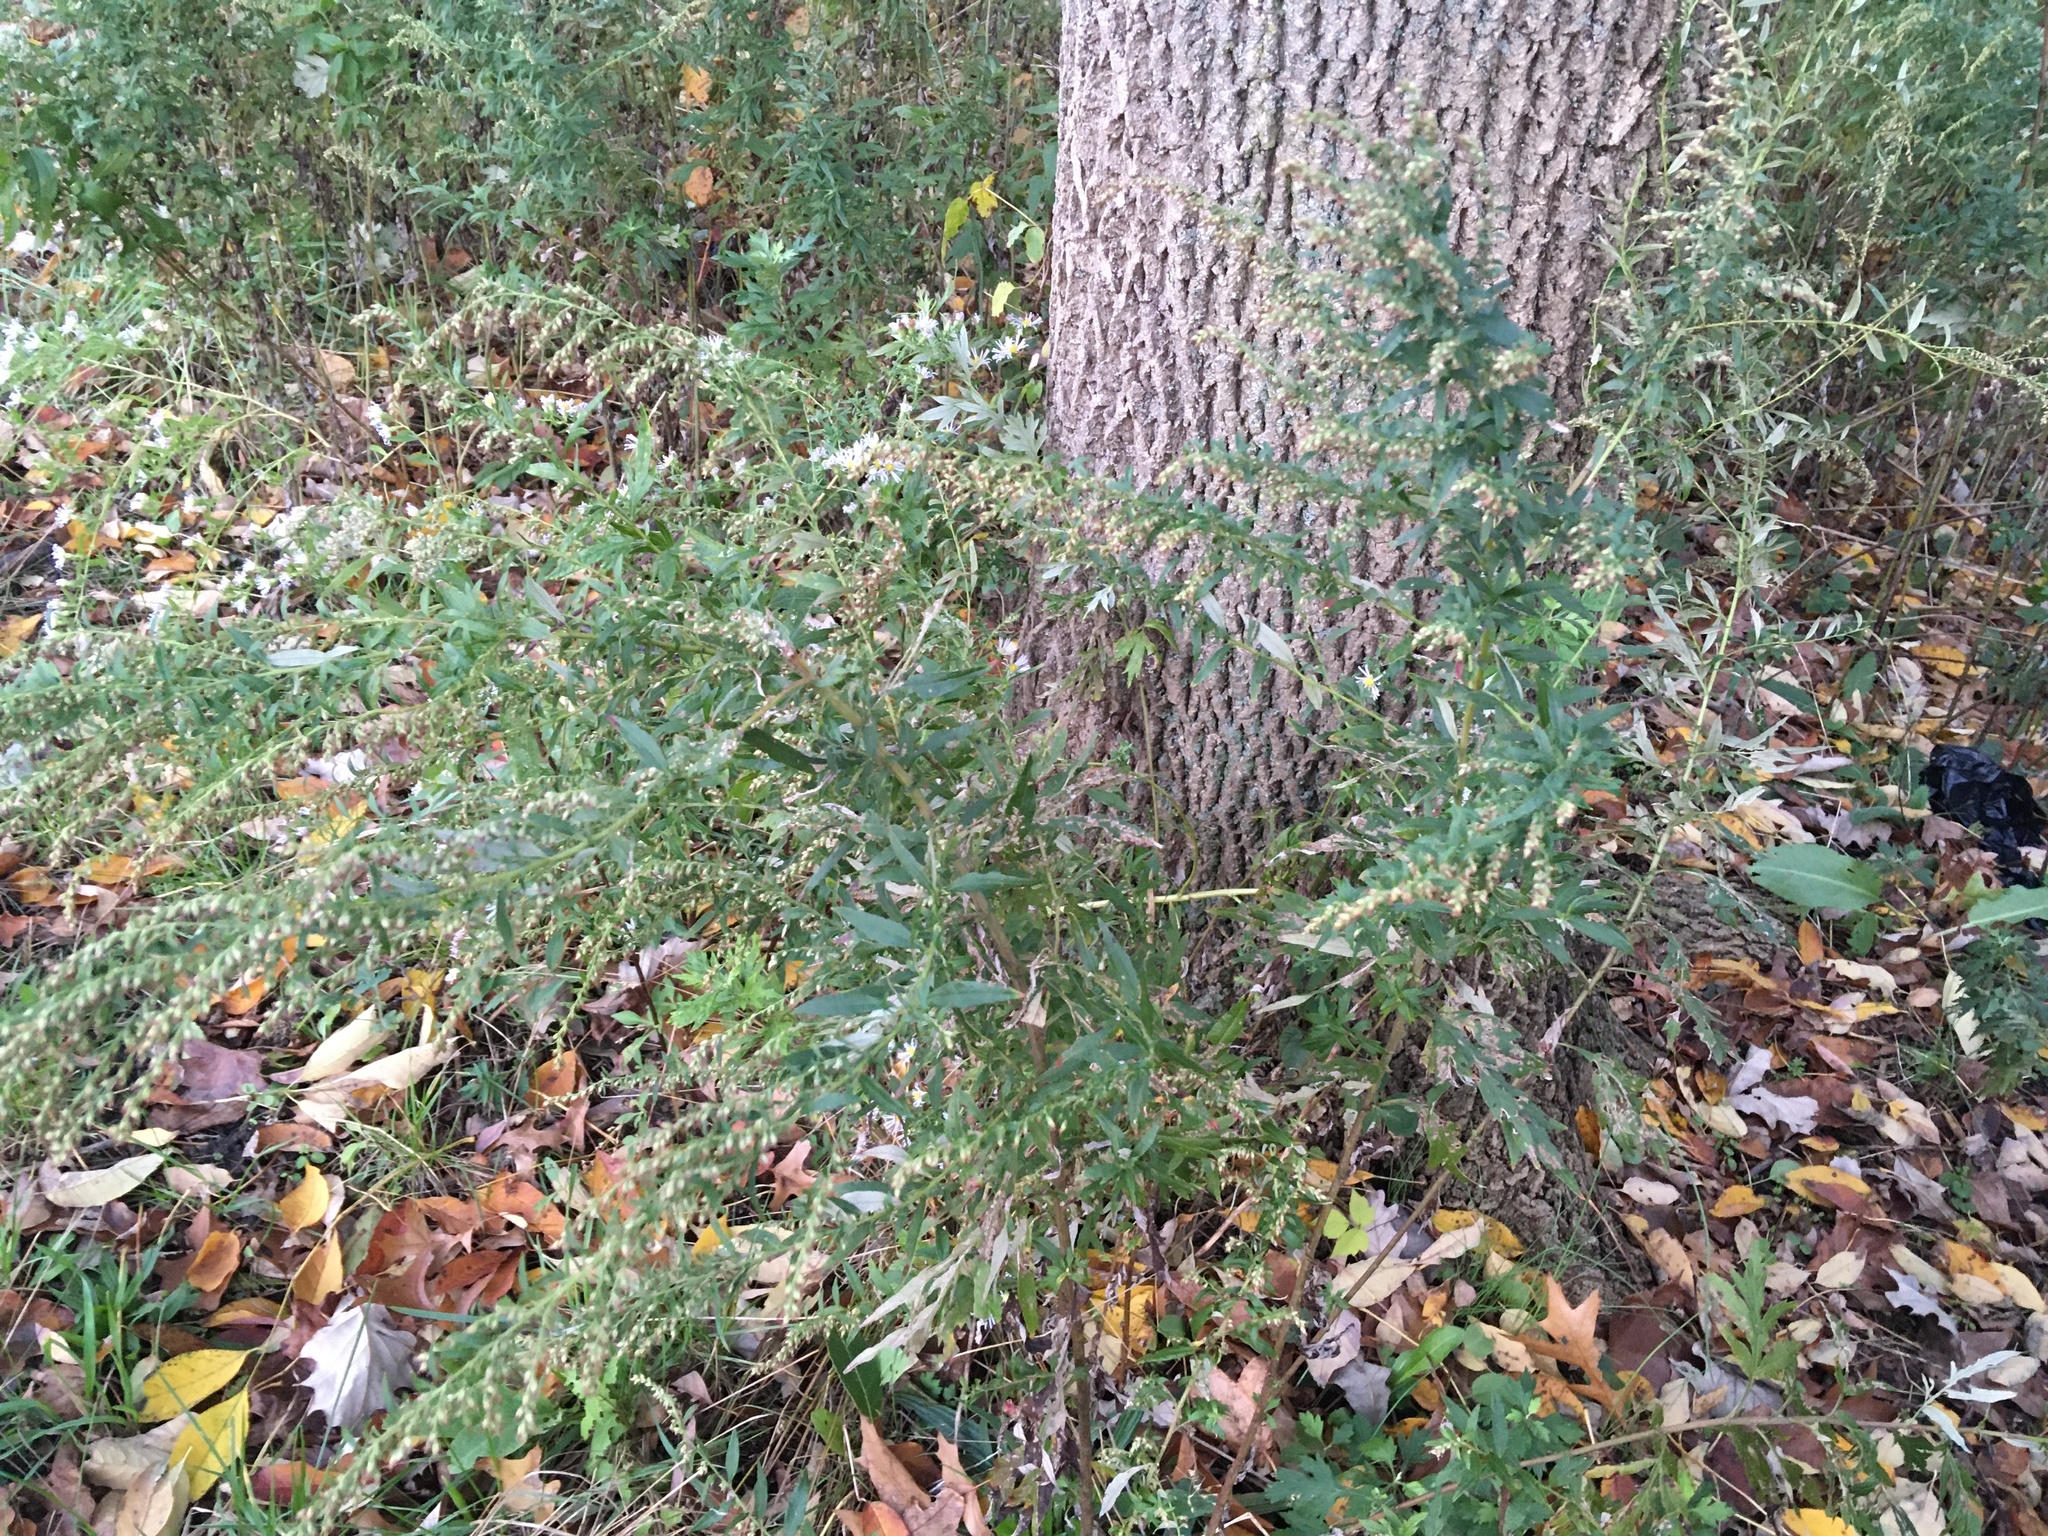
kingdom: Plantae
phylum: Tracheophyta
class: Magnoliopsida
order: Asterales
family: Asteraceae
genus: Artemisia
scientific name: Artemisia vulgaris
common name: Mugwort
